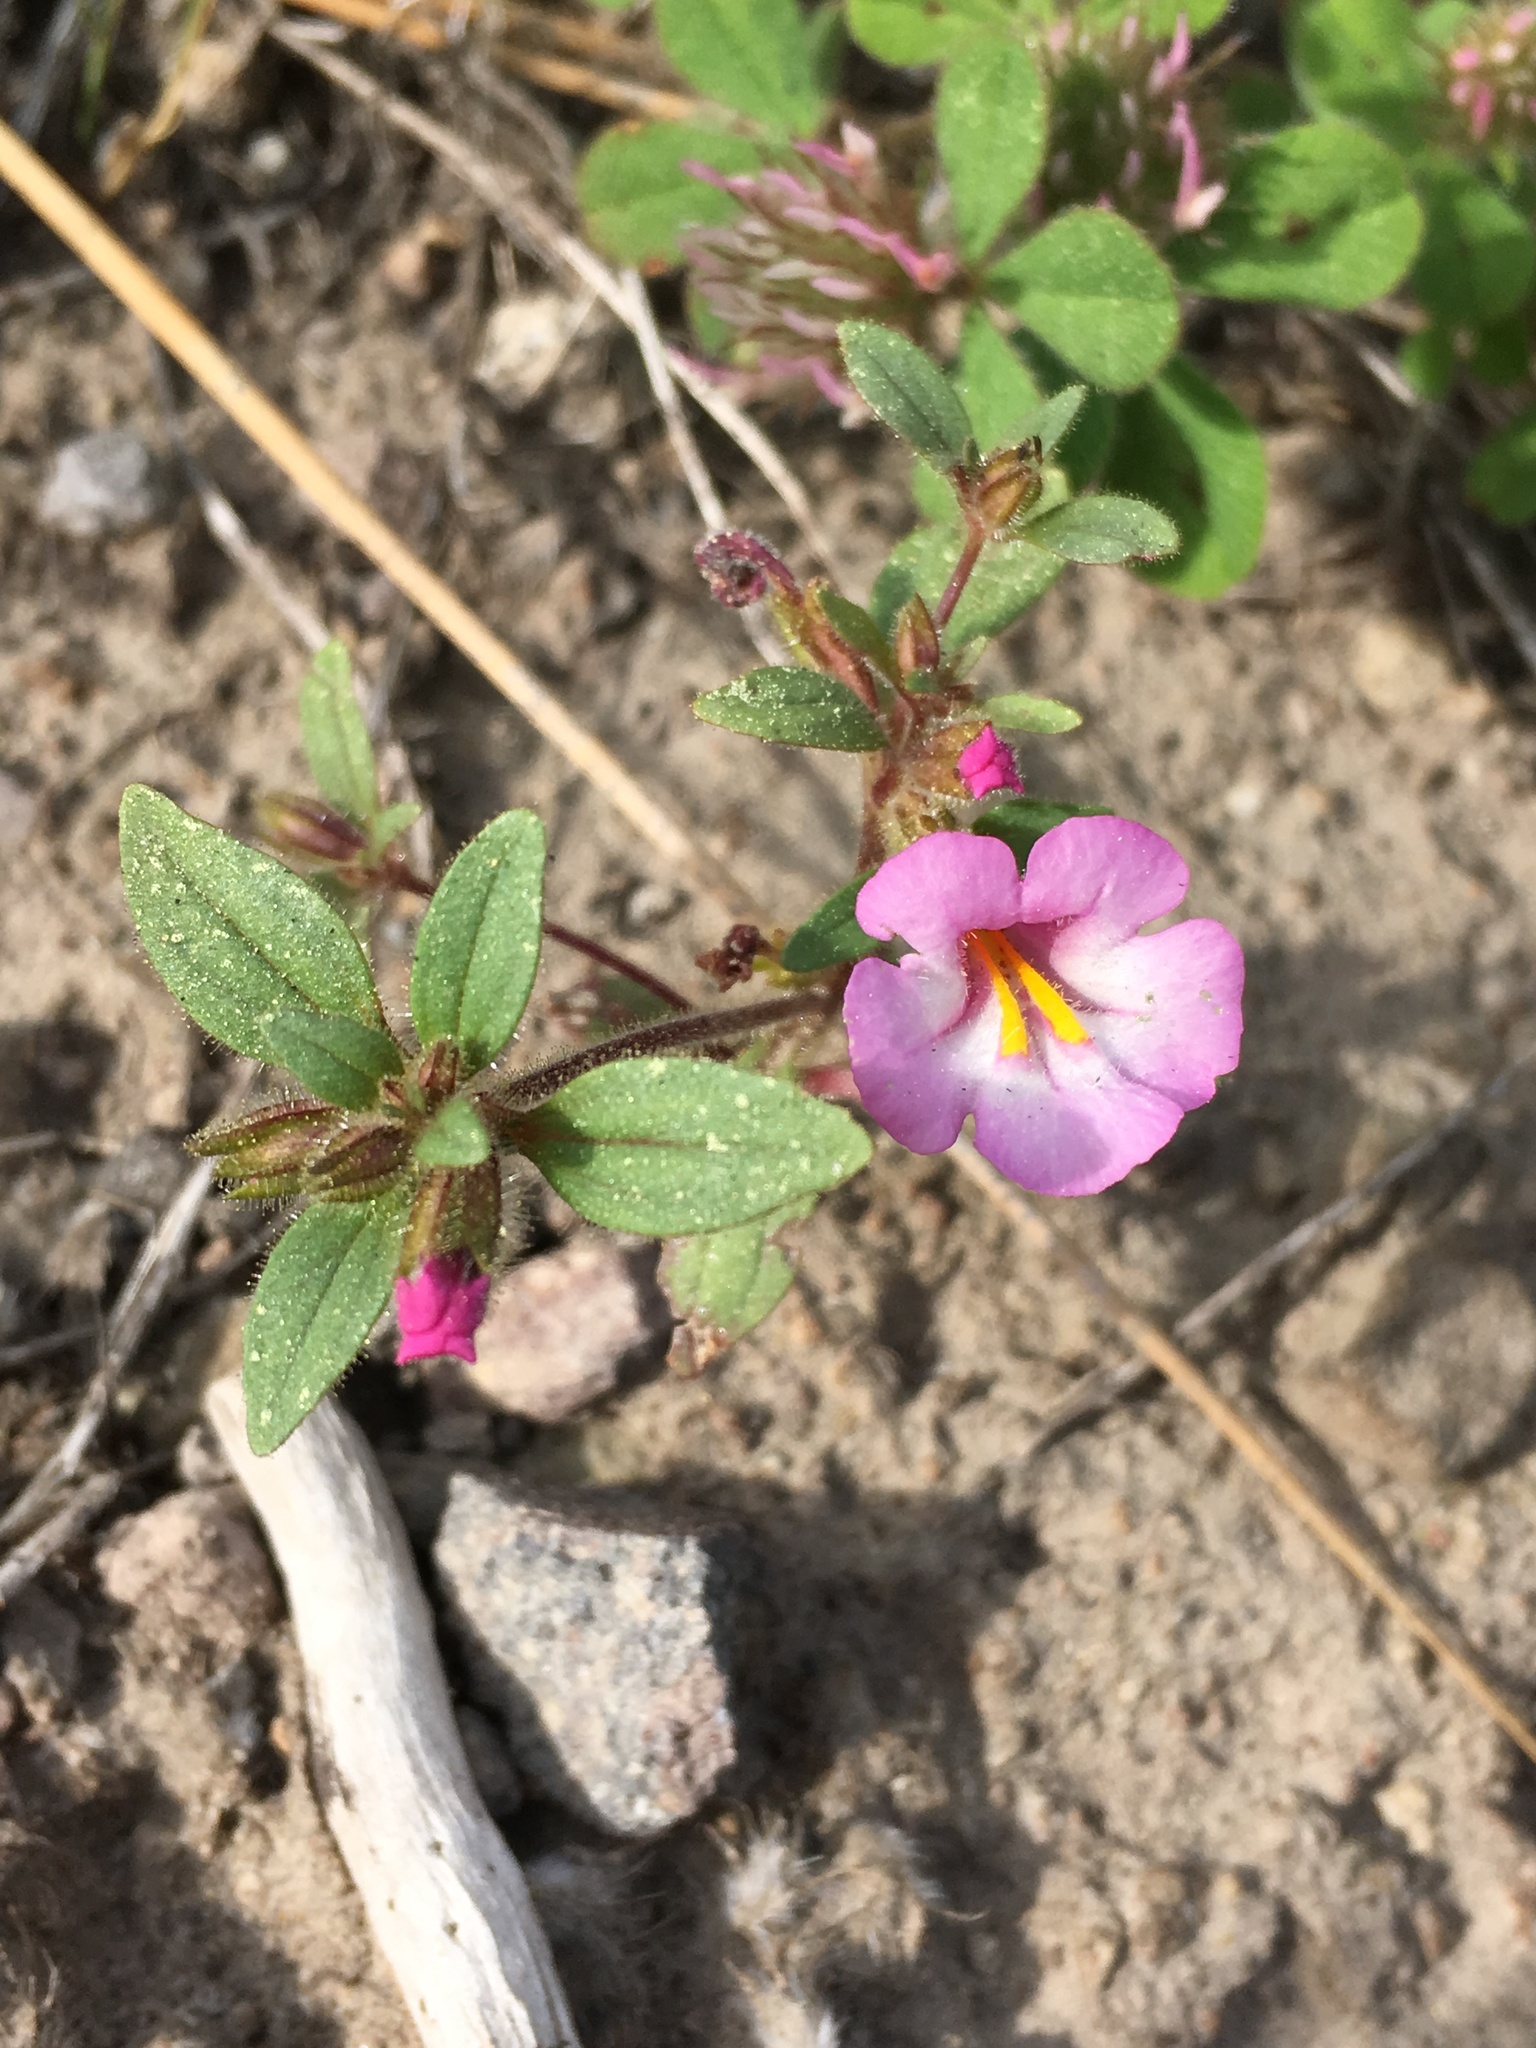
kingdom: Plantae
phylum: Tracheophyta
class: Magnoliopsida
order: Lamiales
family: Phrymaceae
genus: Diplacus
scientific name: Diplacus torreyi
